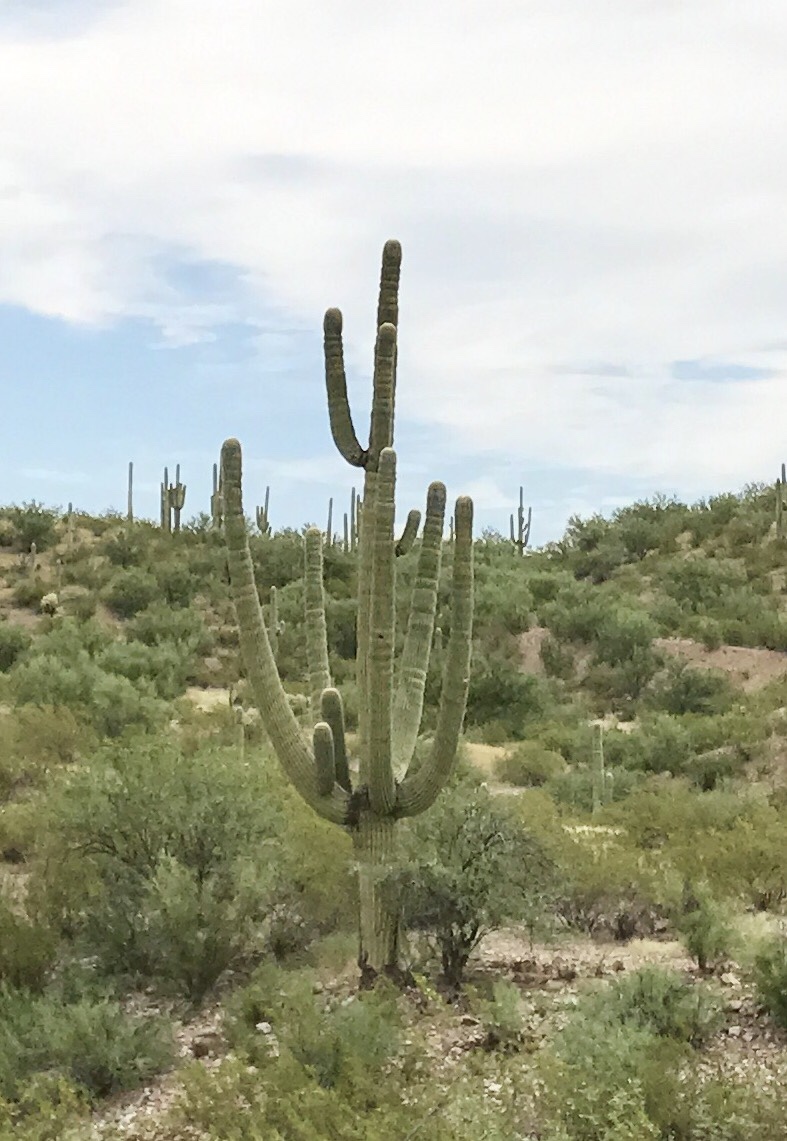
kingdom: Plantae
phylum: Tracheophyta
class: Magnoliopsida
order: Caryophyllales
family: Cactaceae
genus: Carnegiea
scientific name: Carnegiea gigantea
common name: Saguaro
